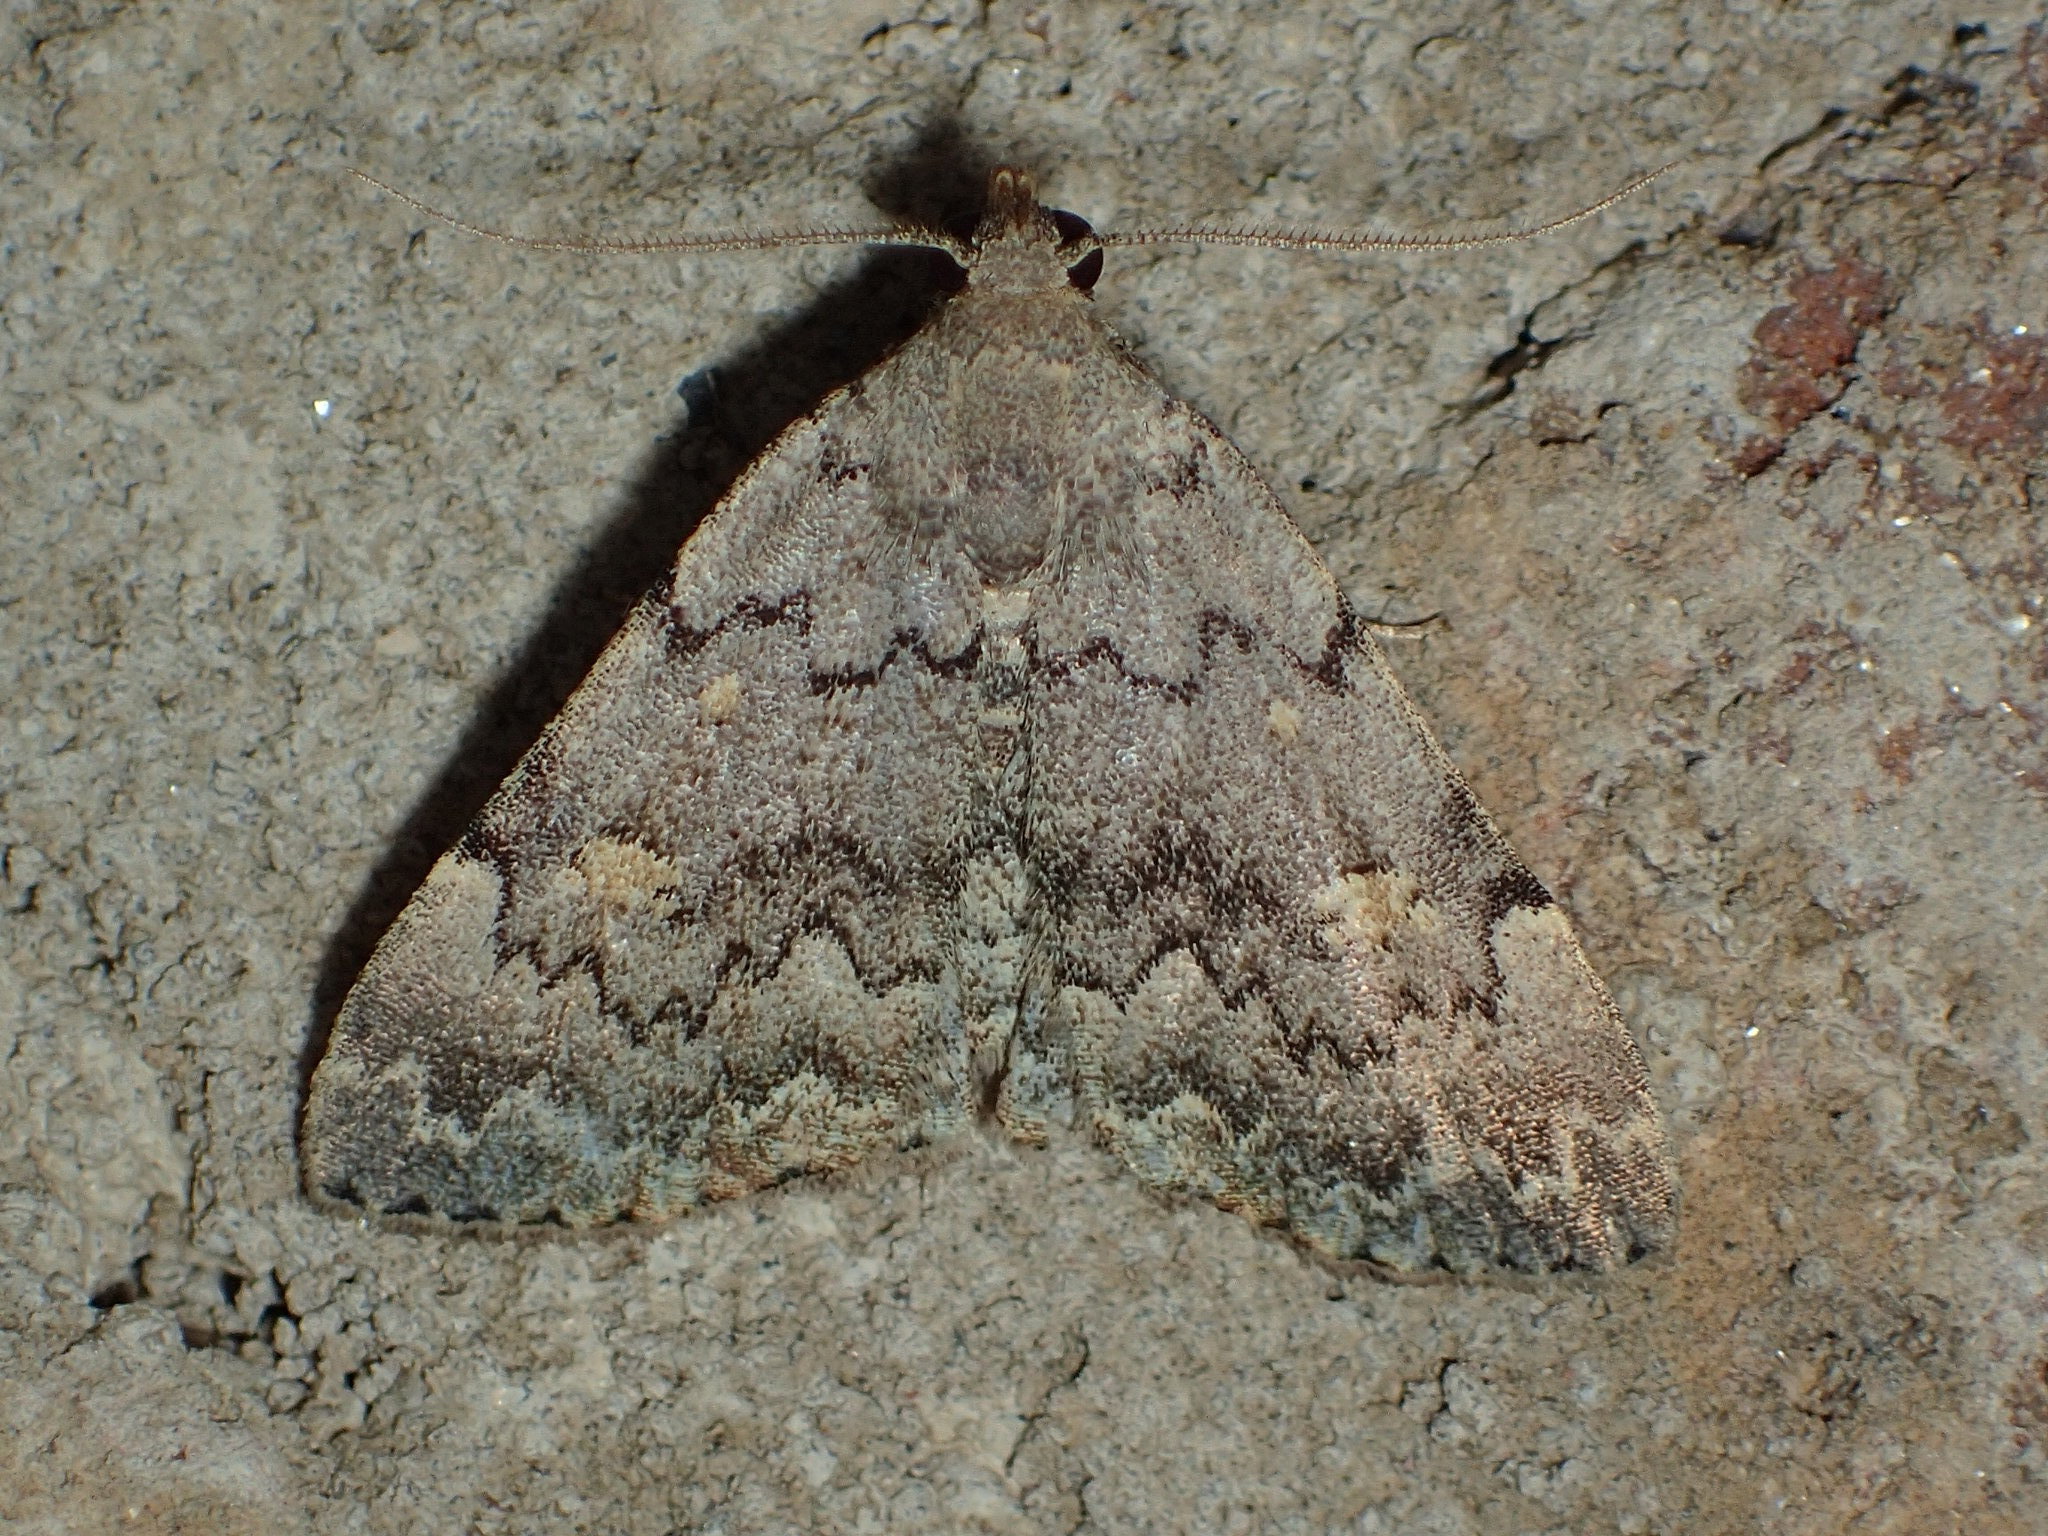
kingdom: Animalia
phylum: Arthropoda
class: Insecta
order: Lepidoptera
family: Erebidae
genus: Idia
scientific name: Idia aemula
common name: Common idia moth
